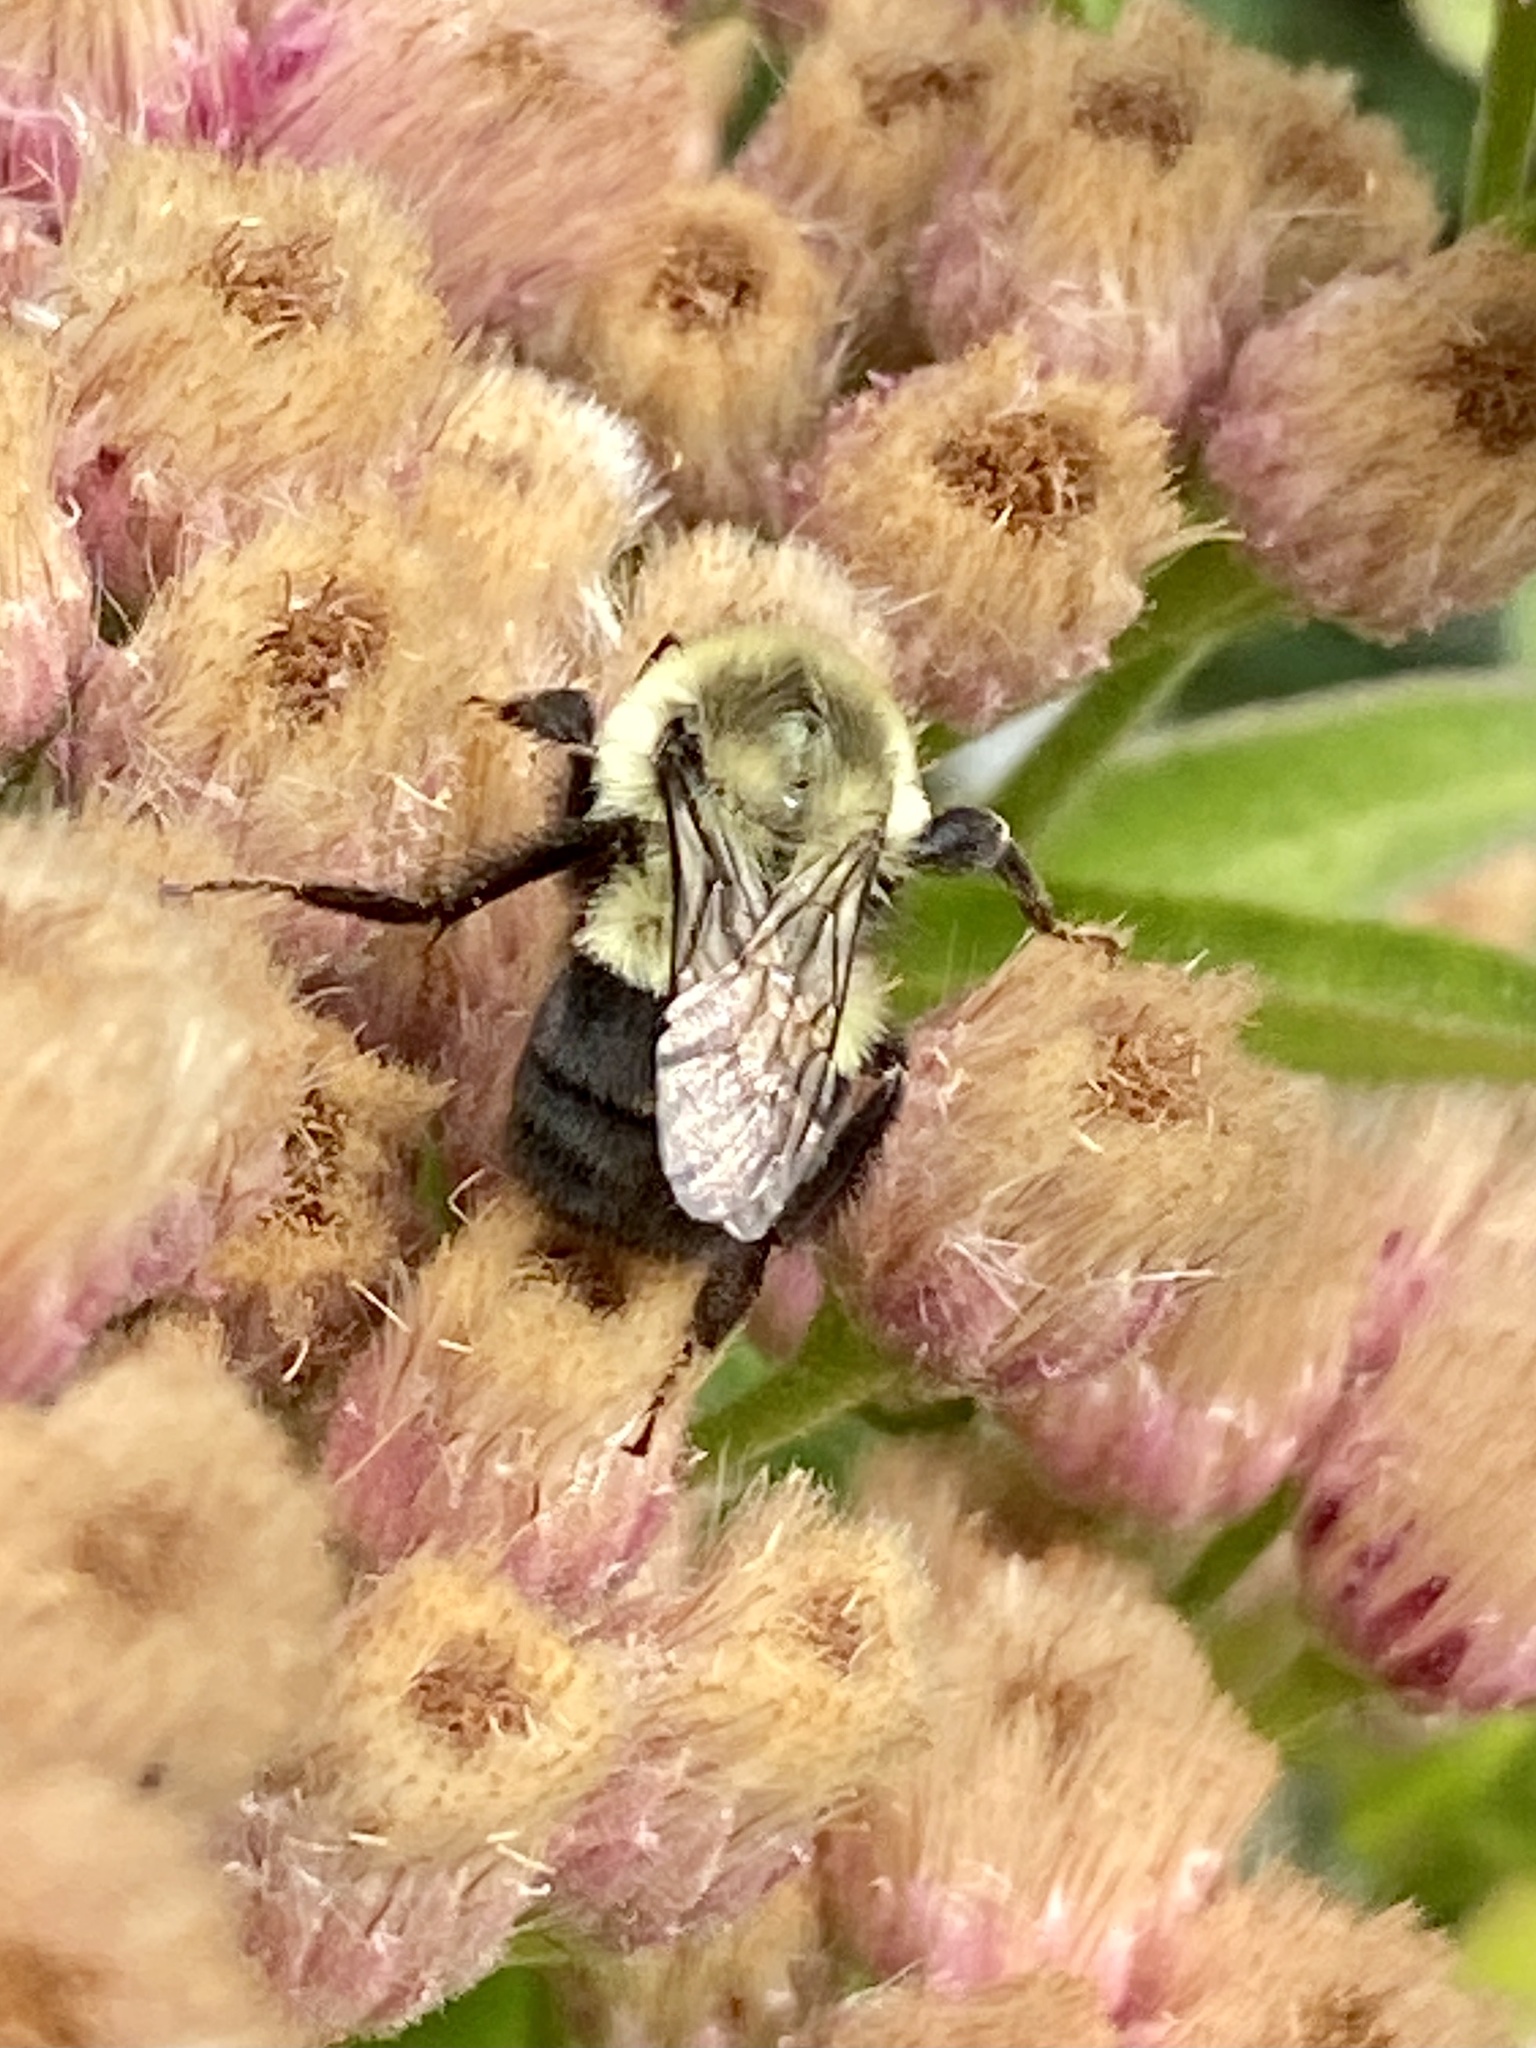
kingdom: Animalia
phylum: Arthropoda
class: Insecta
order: Hymenoptera
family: Apidae
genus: Bombus
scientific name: Bombus impatiens
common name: Common eastern bumble bee
